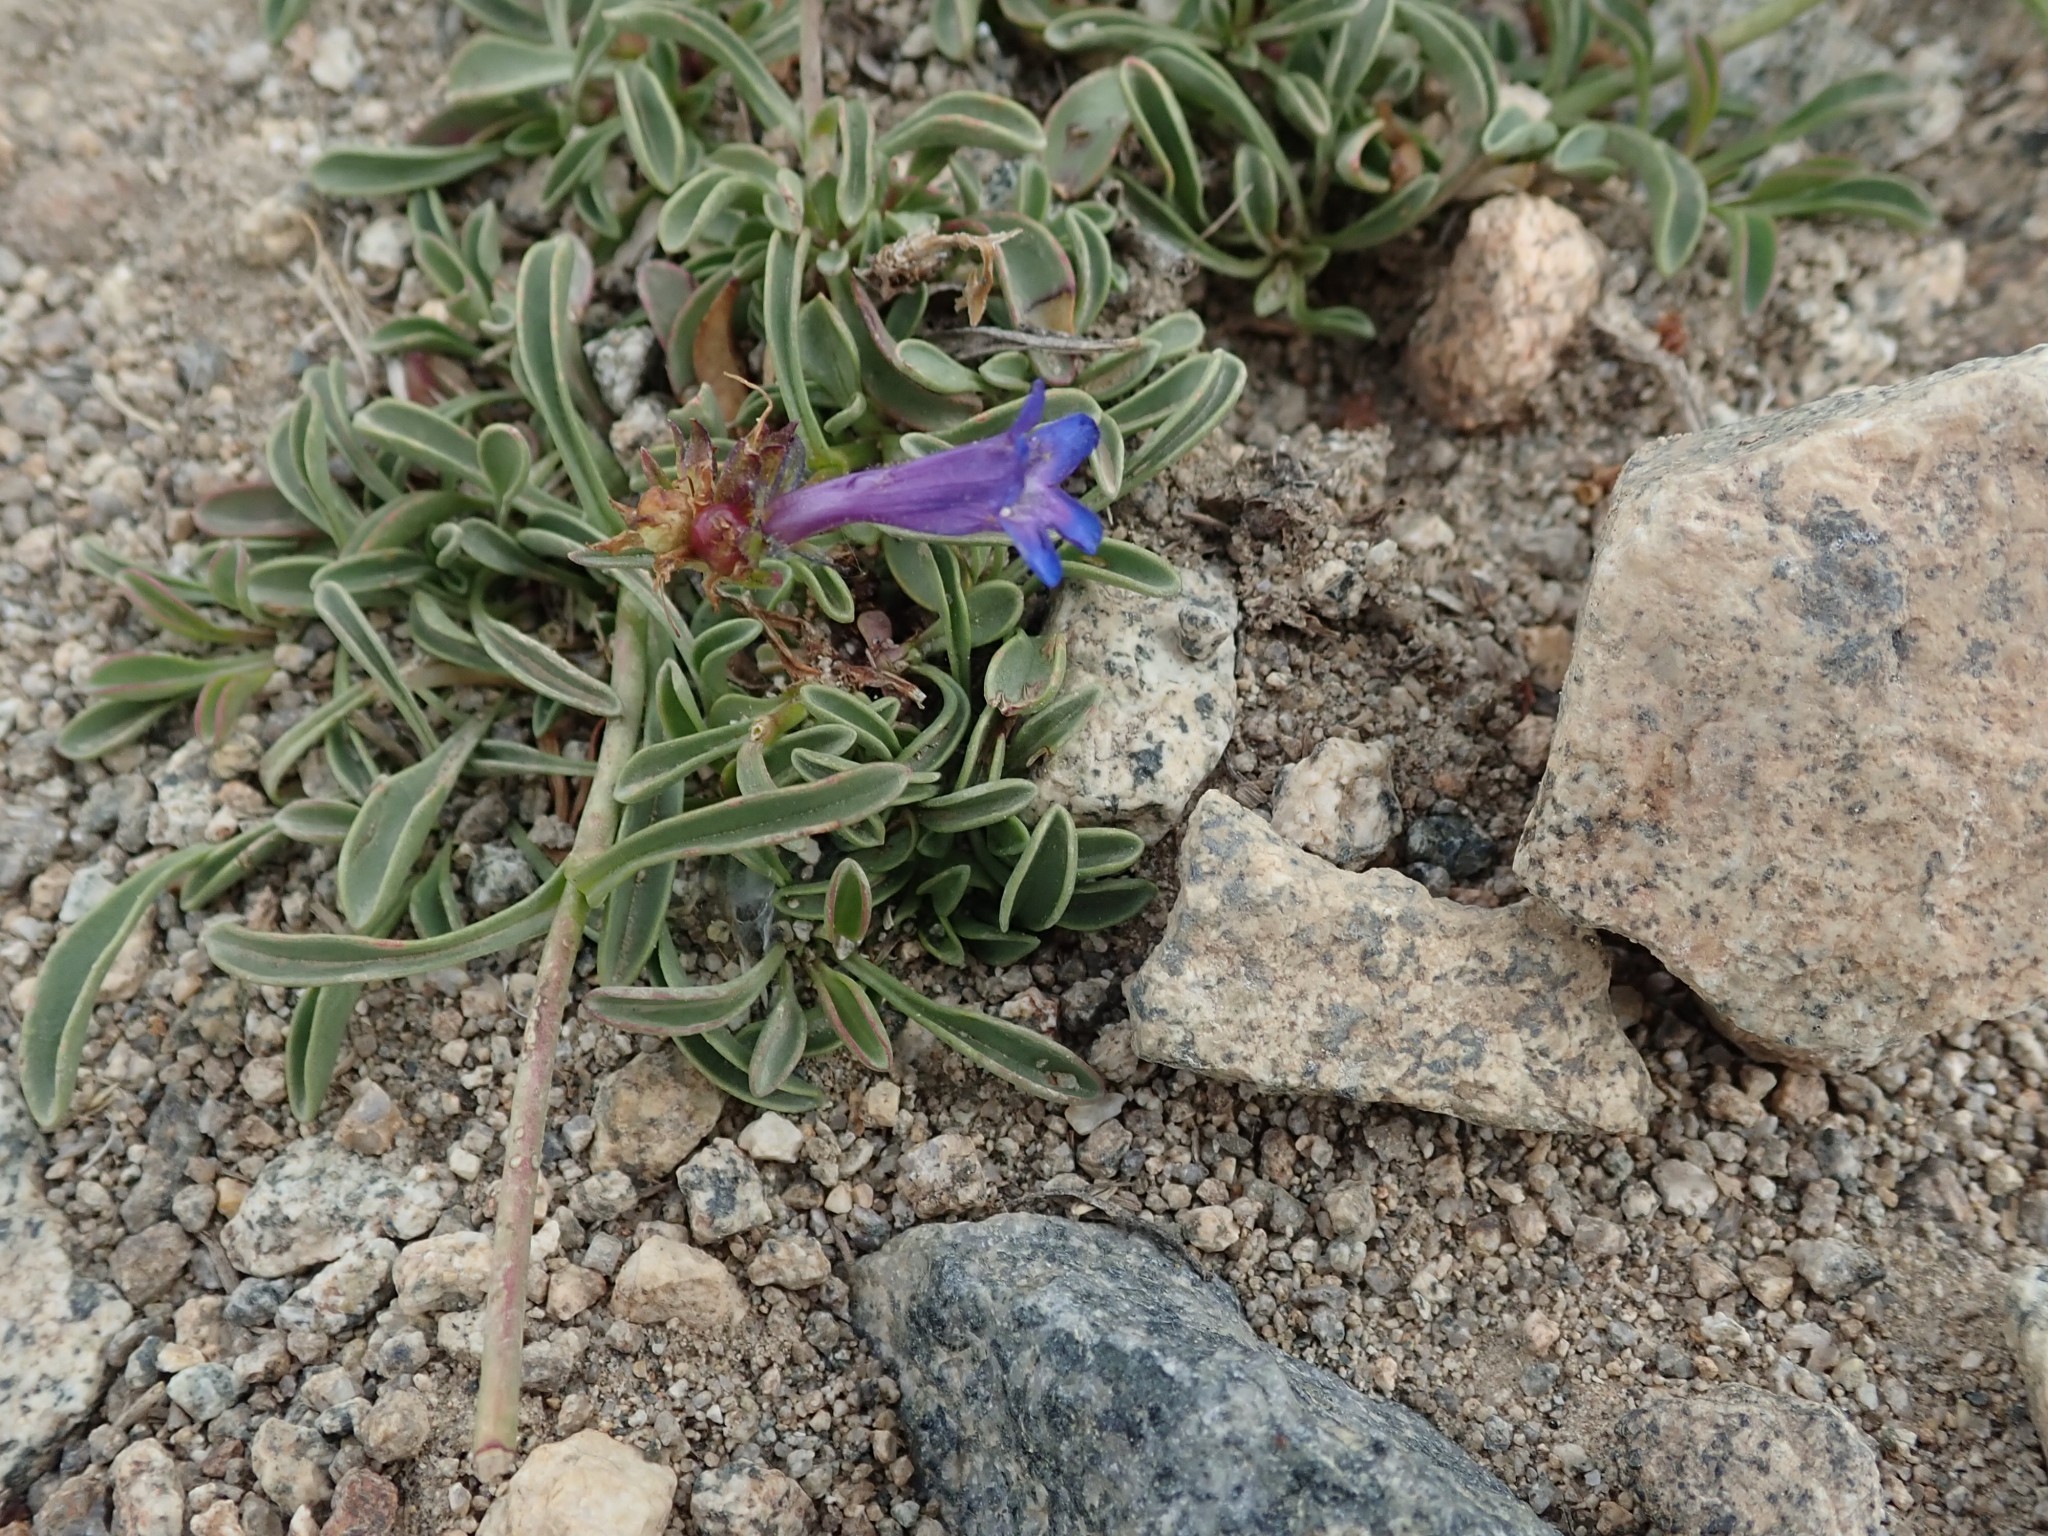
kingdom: Plantae
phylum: Tracheophyta
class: Magnoliopsida
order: Lamiales
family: Plantaginaceae
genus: Penstemon
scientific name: Penstemon heterodoxus
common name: Sierran penstemon
